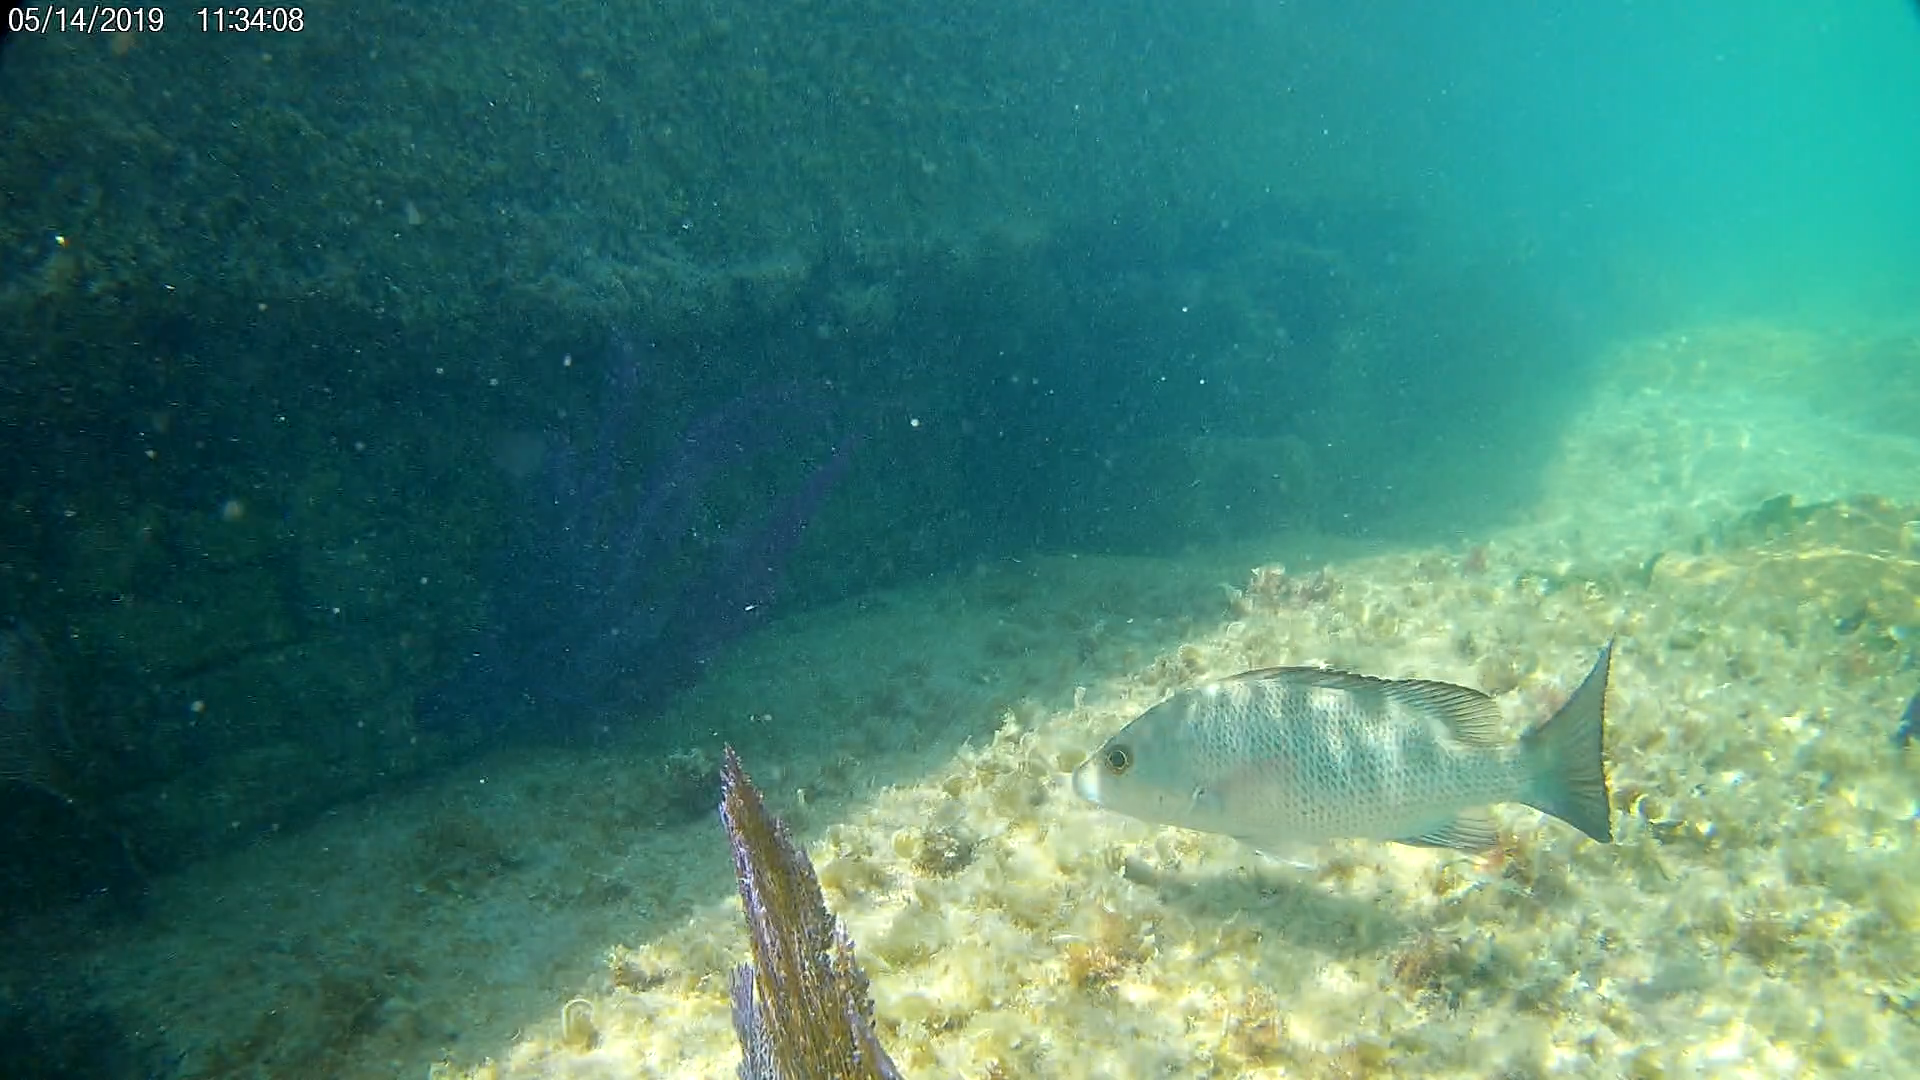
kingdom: Animalia
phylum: Chordata
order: Perciformes
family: Lutjanidae
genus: Lutjanus
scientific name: Lutjanus griseus
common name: Gray snapper
